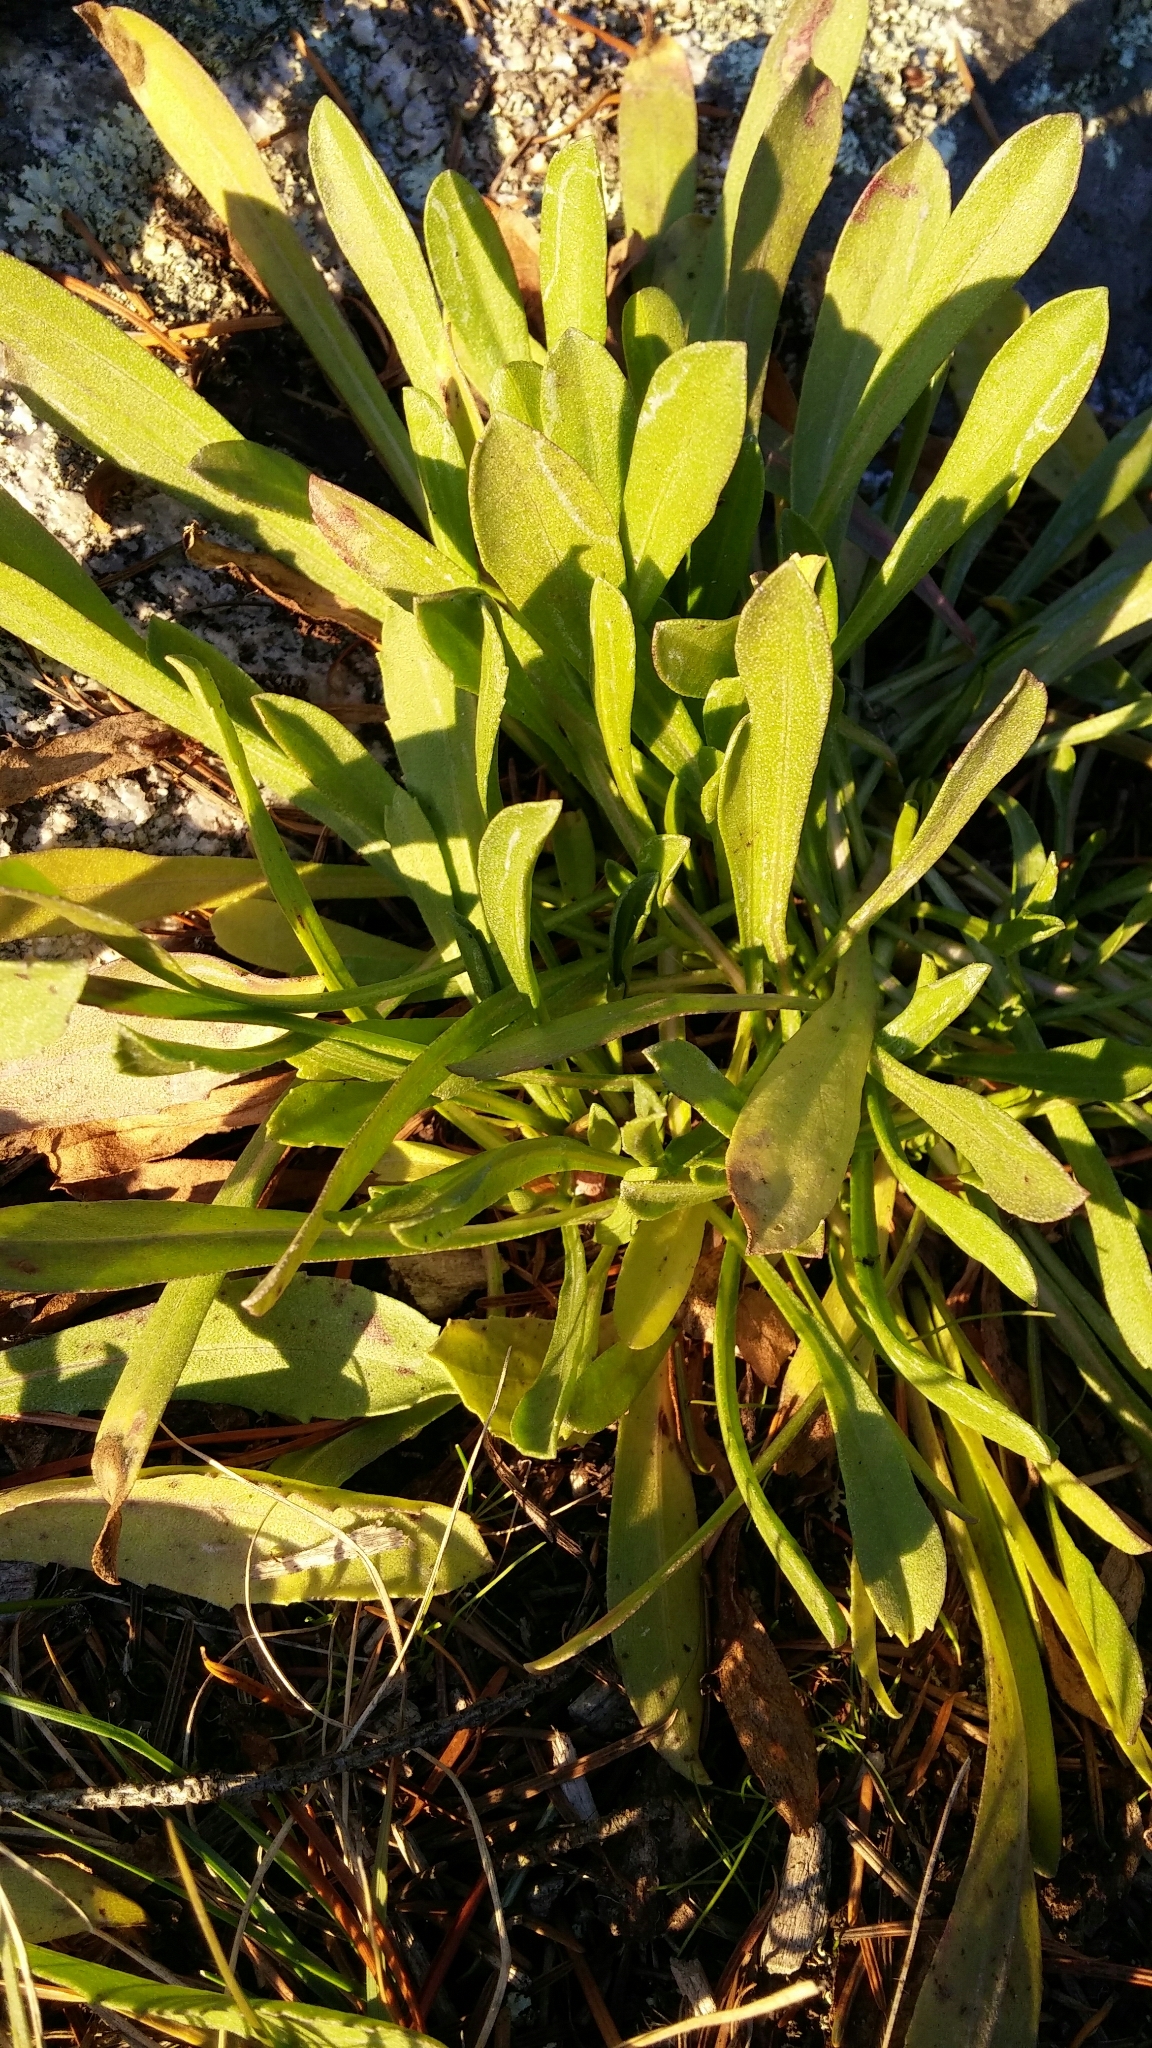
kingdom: Plantae
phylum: Tracheophyta
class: Magnoliopsida
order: Asterales
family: Asteraceae
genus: Grindelia
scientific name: Grindelia hirsutula
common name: Hairy gumweed
